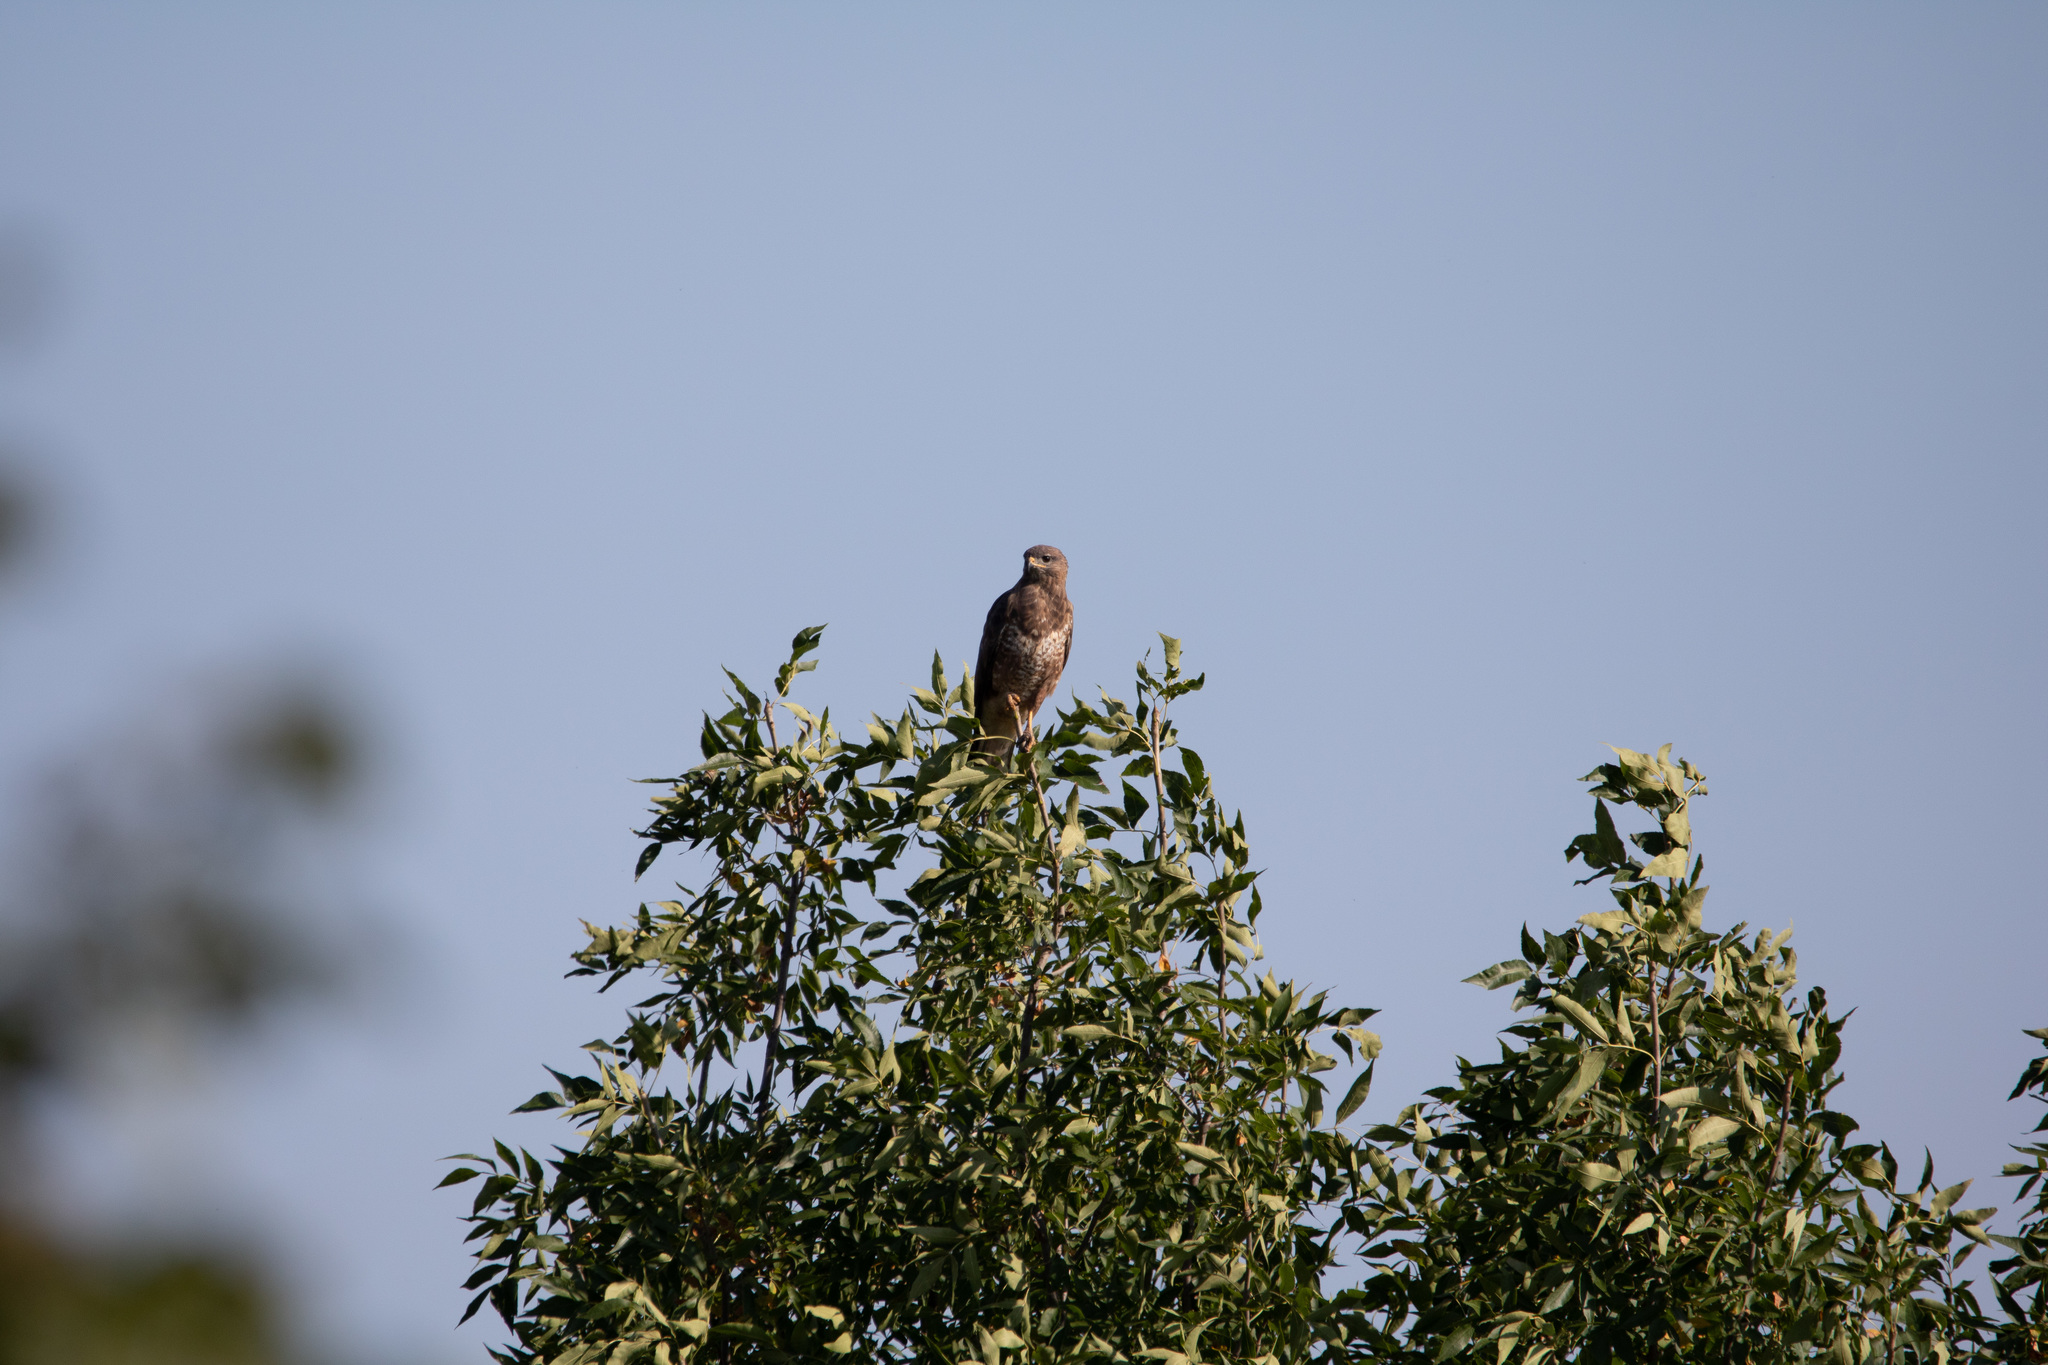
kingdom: Animalia
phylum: Chordata
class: Aves
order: Accipitriformes
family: Accipitridae
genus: Buteo
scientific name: Buteo buteo
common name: Common buzzard
